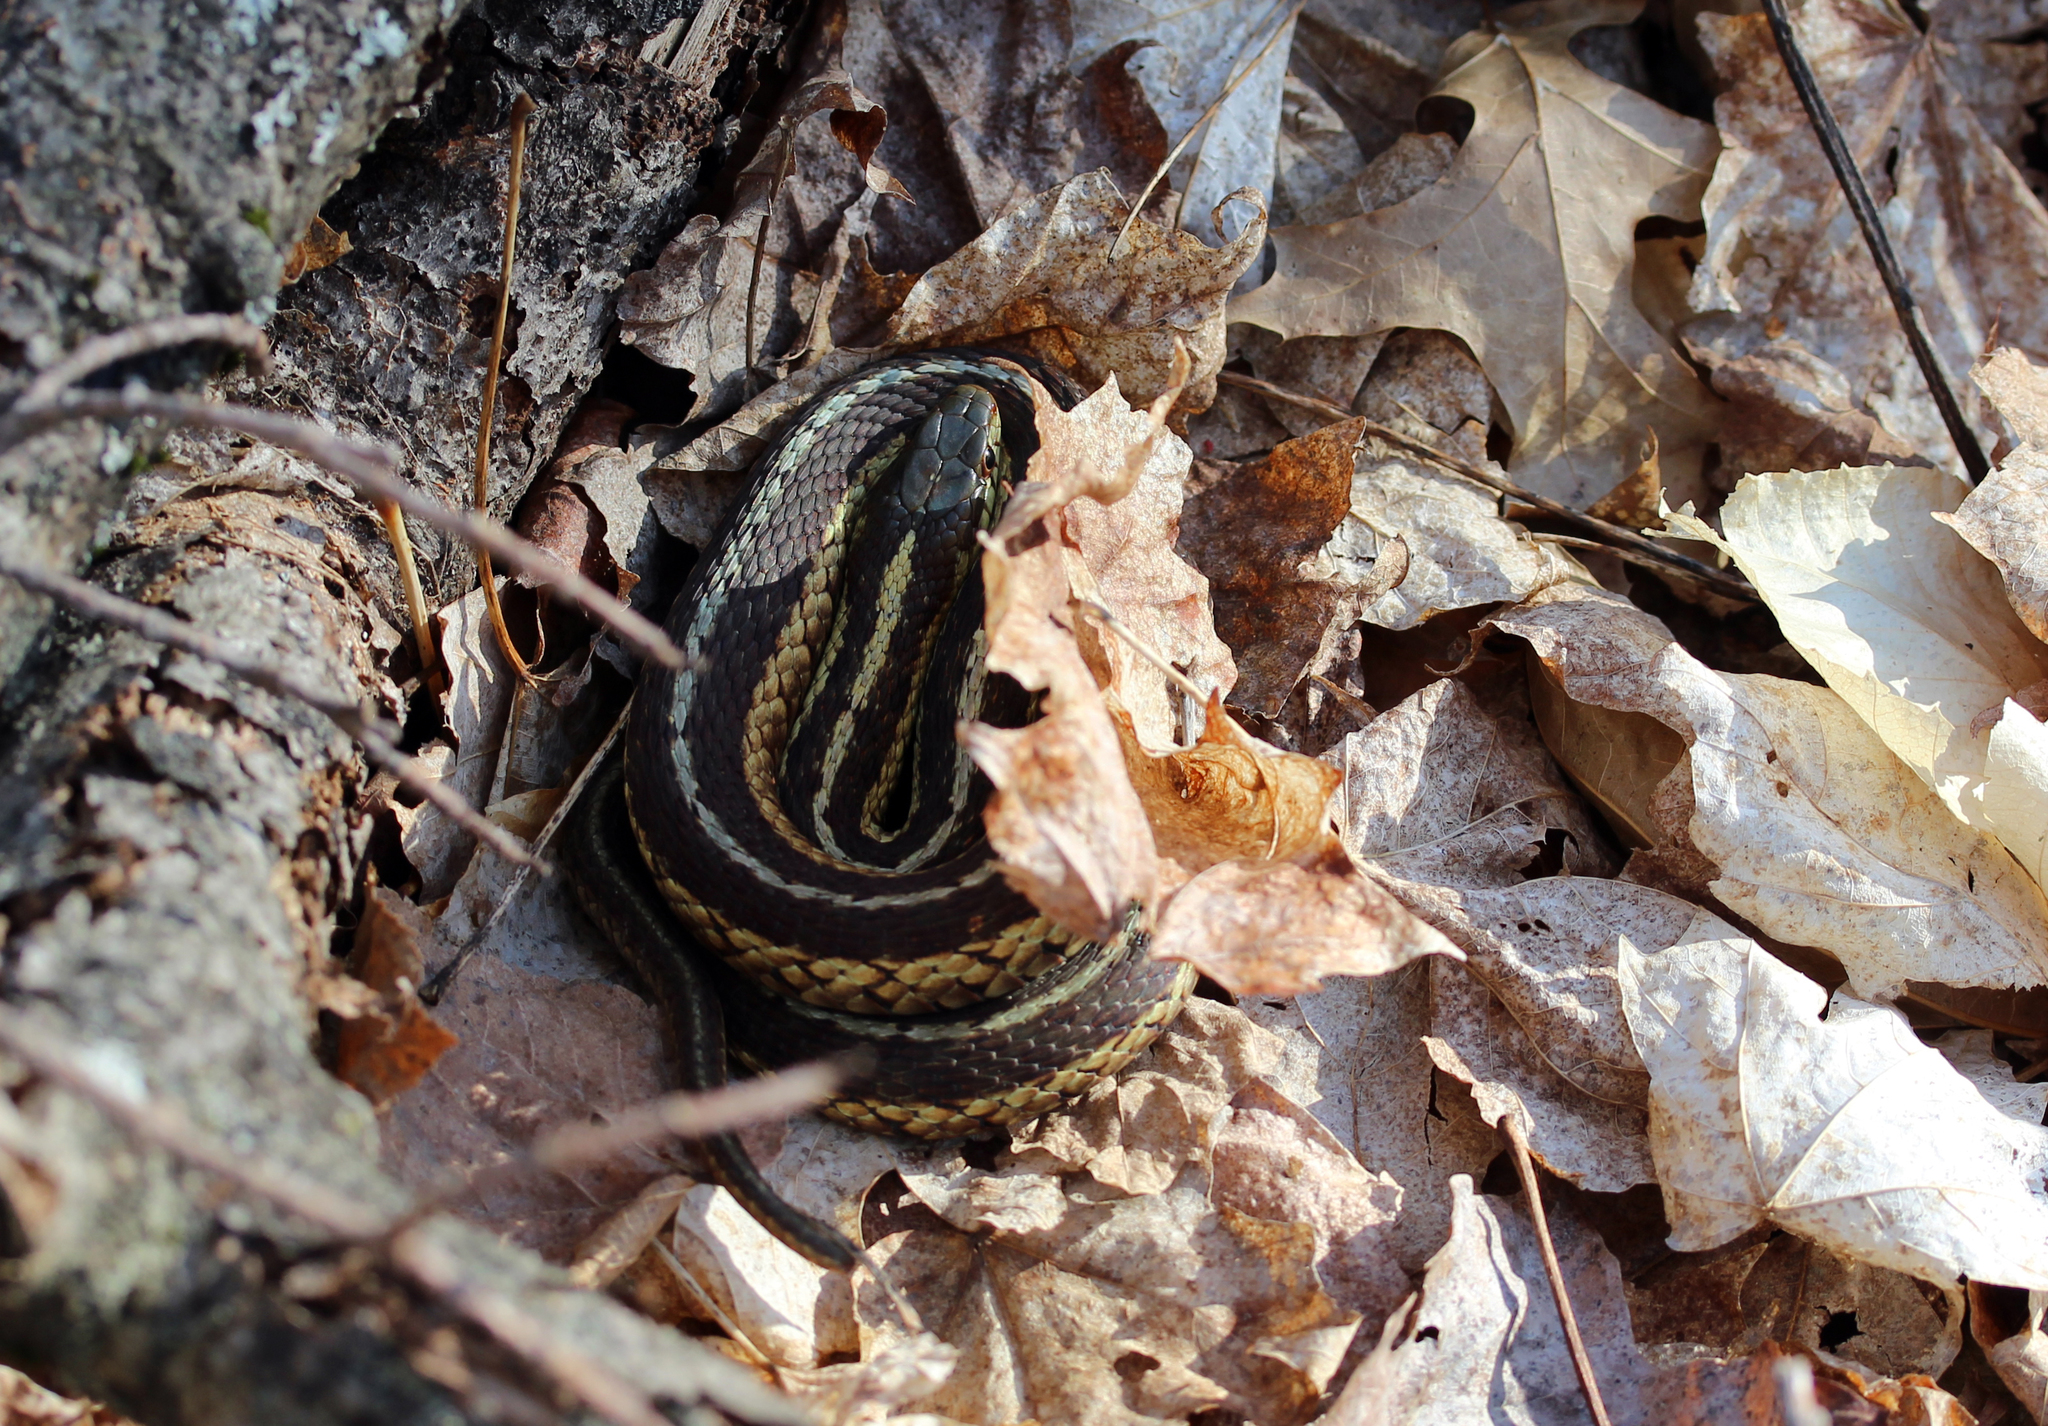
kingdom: Animalia
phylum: Chordata
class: Squamata
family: Colubridae
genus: Thamnophis
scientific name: Thamnophis sirtalis
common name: Common garter snake
